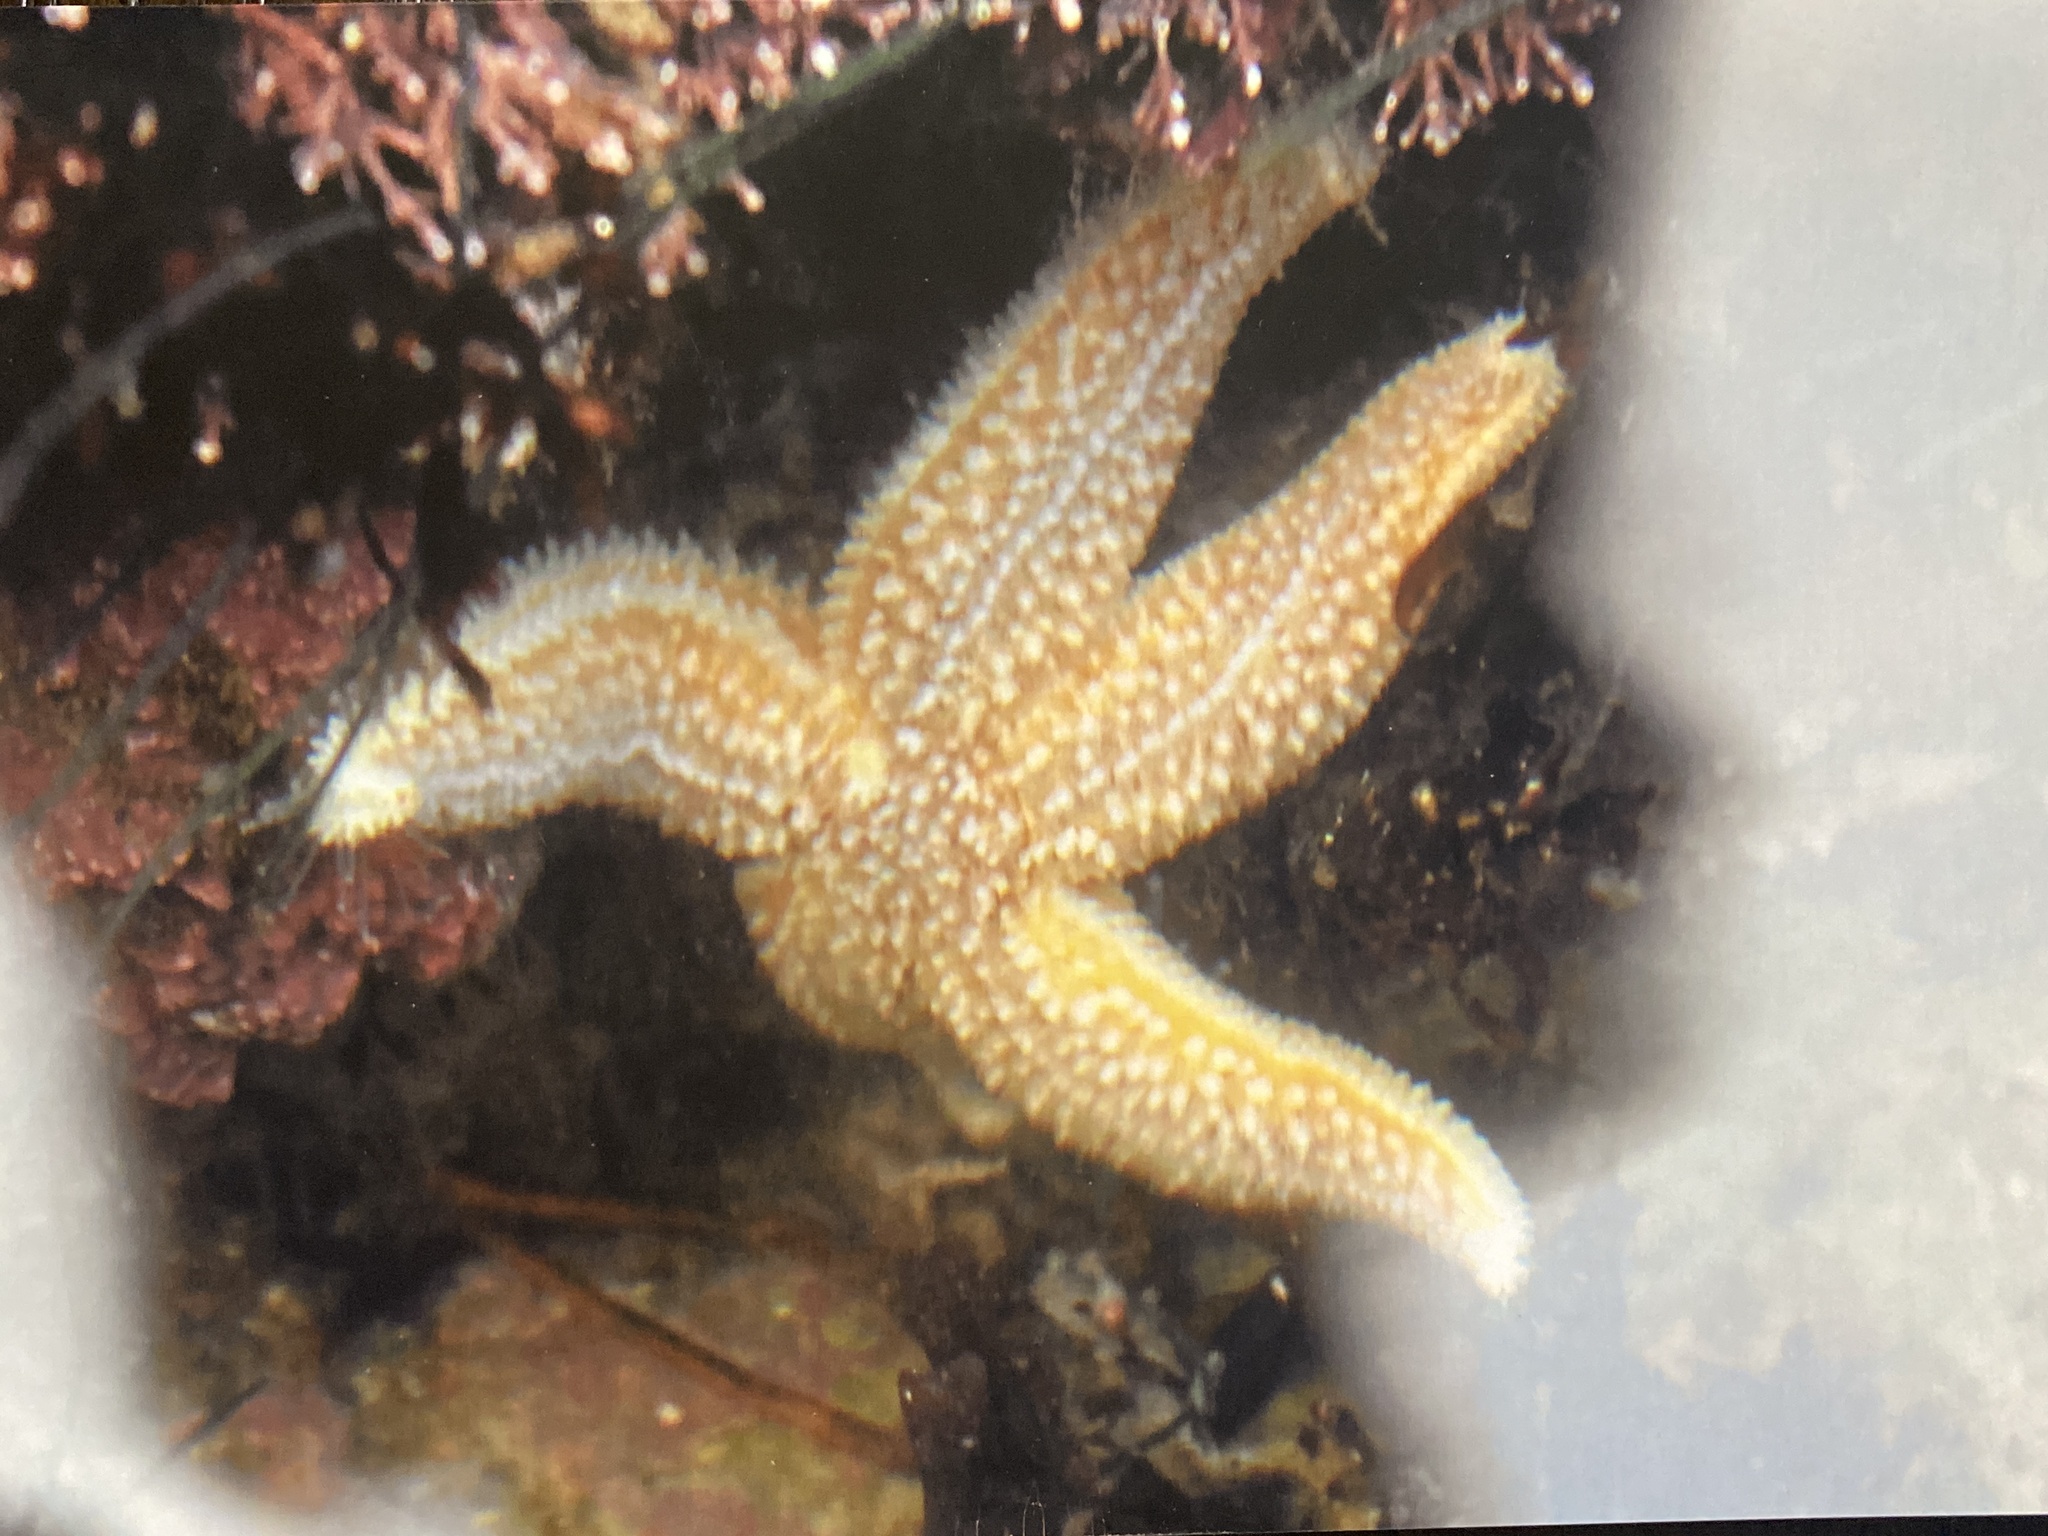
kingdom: Animalia
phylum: Echinodermata
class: Asteroidea
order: Forcipulatida
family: Asteriidae
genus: Asterias
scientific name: Asterias rubens
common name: Common starfish
